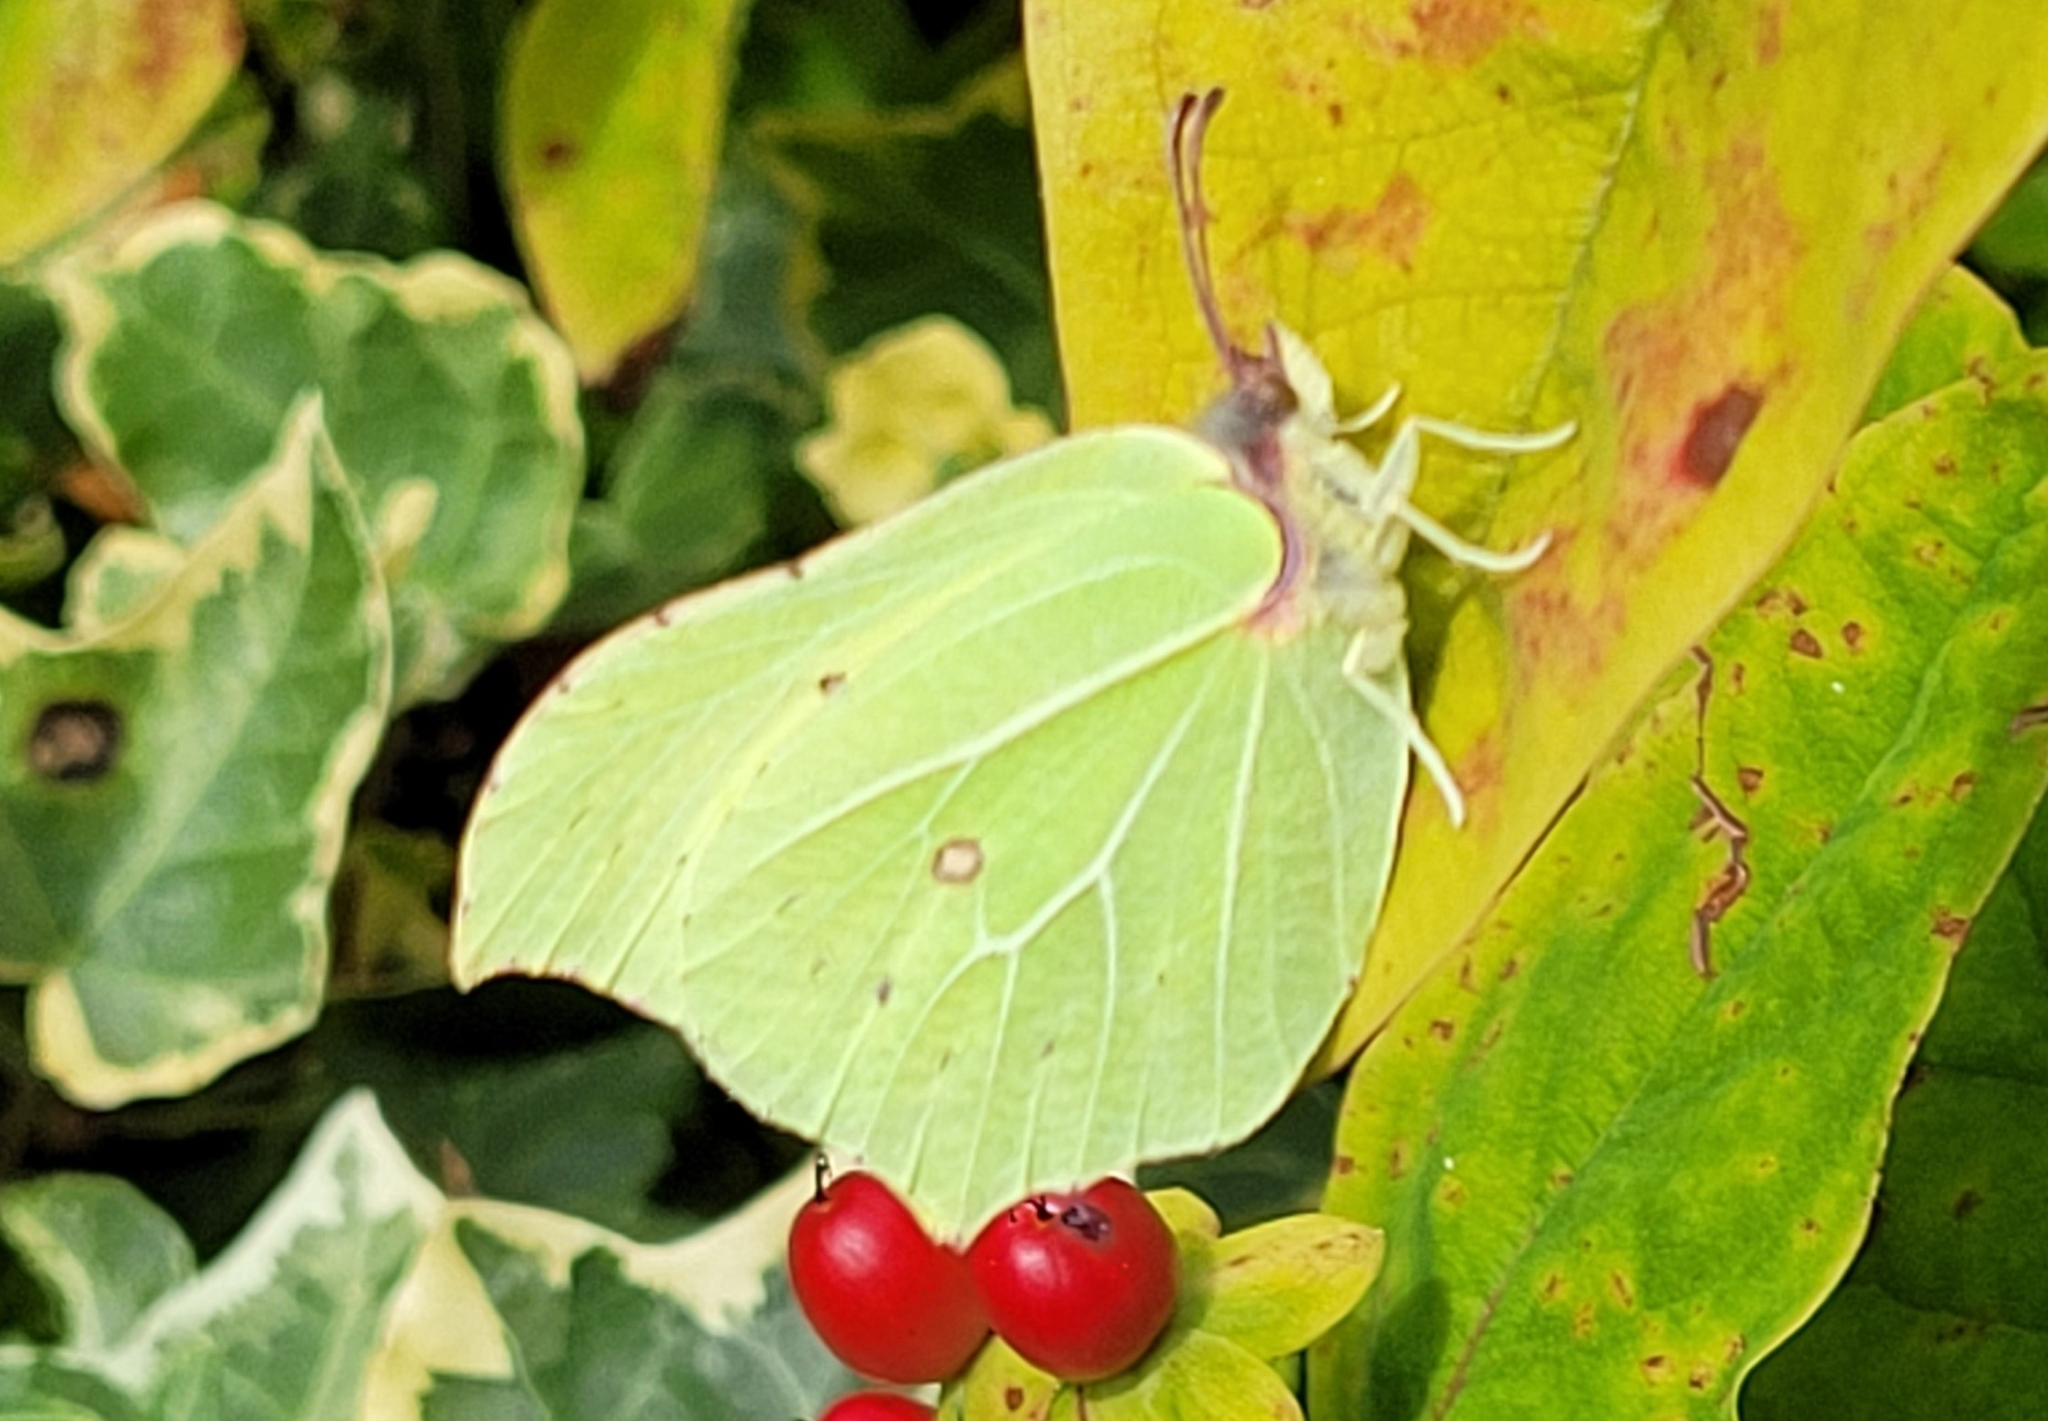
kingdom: Animalia
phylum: Arthropoda
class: Insecta
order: Lepidoptera
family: Pieridae
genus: Gonepteryx
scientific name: Gonepteryx rhamni
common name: Brimstone
